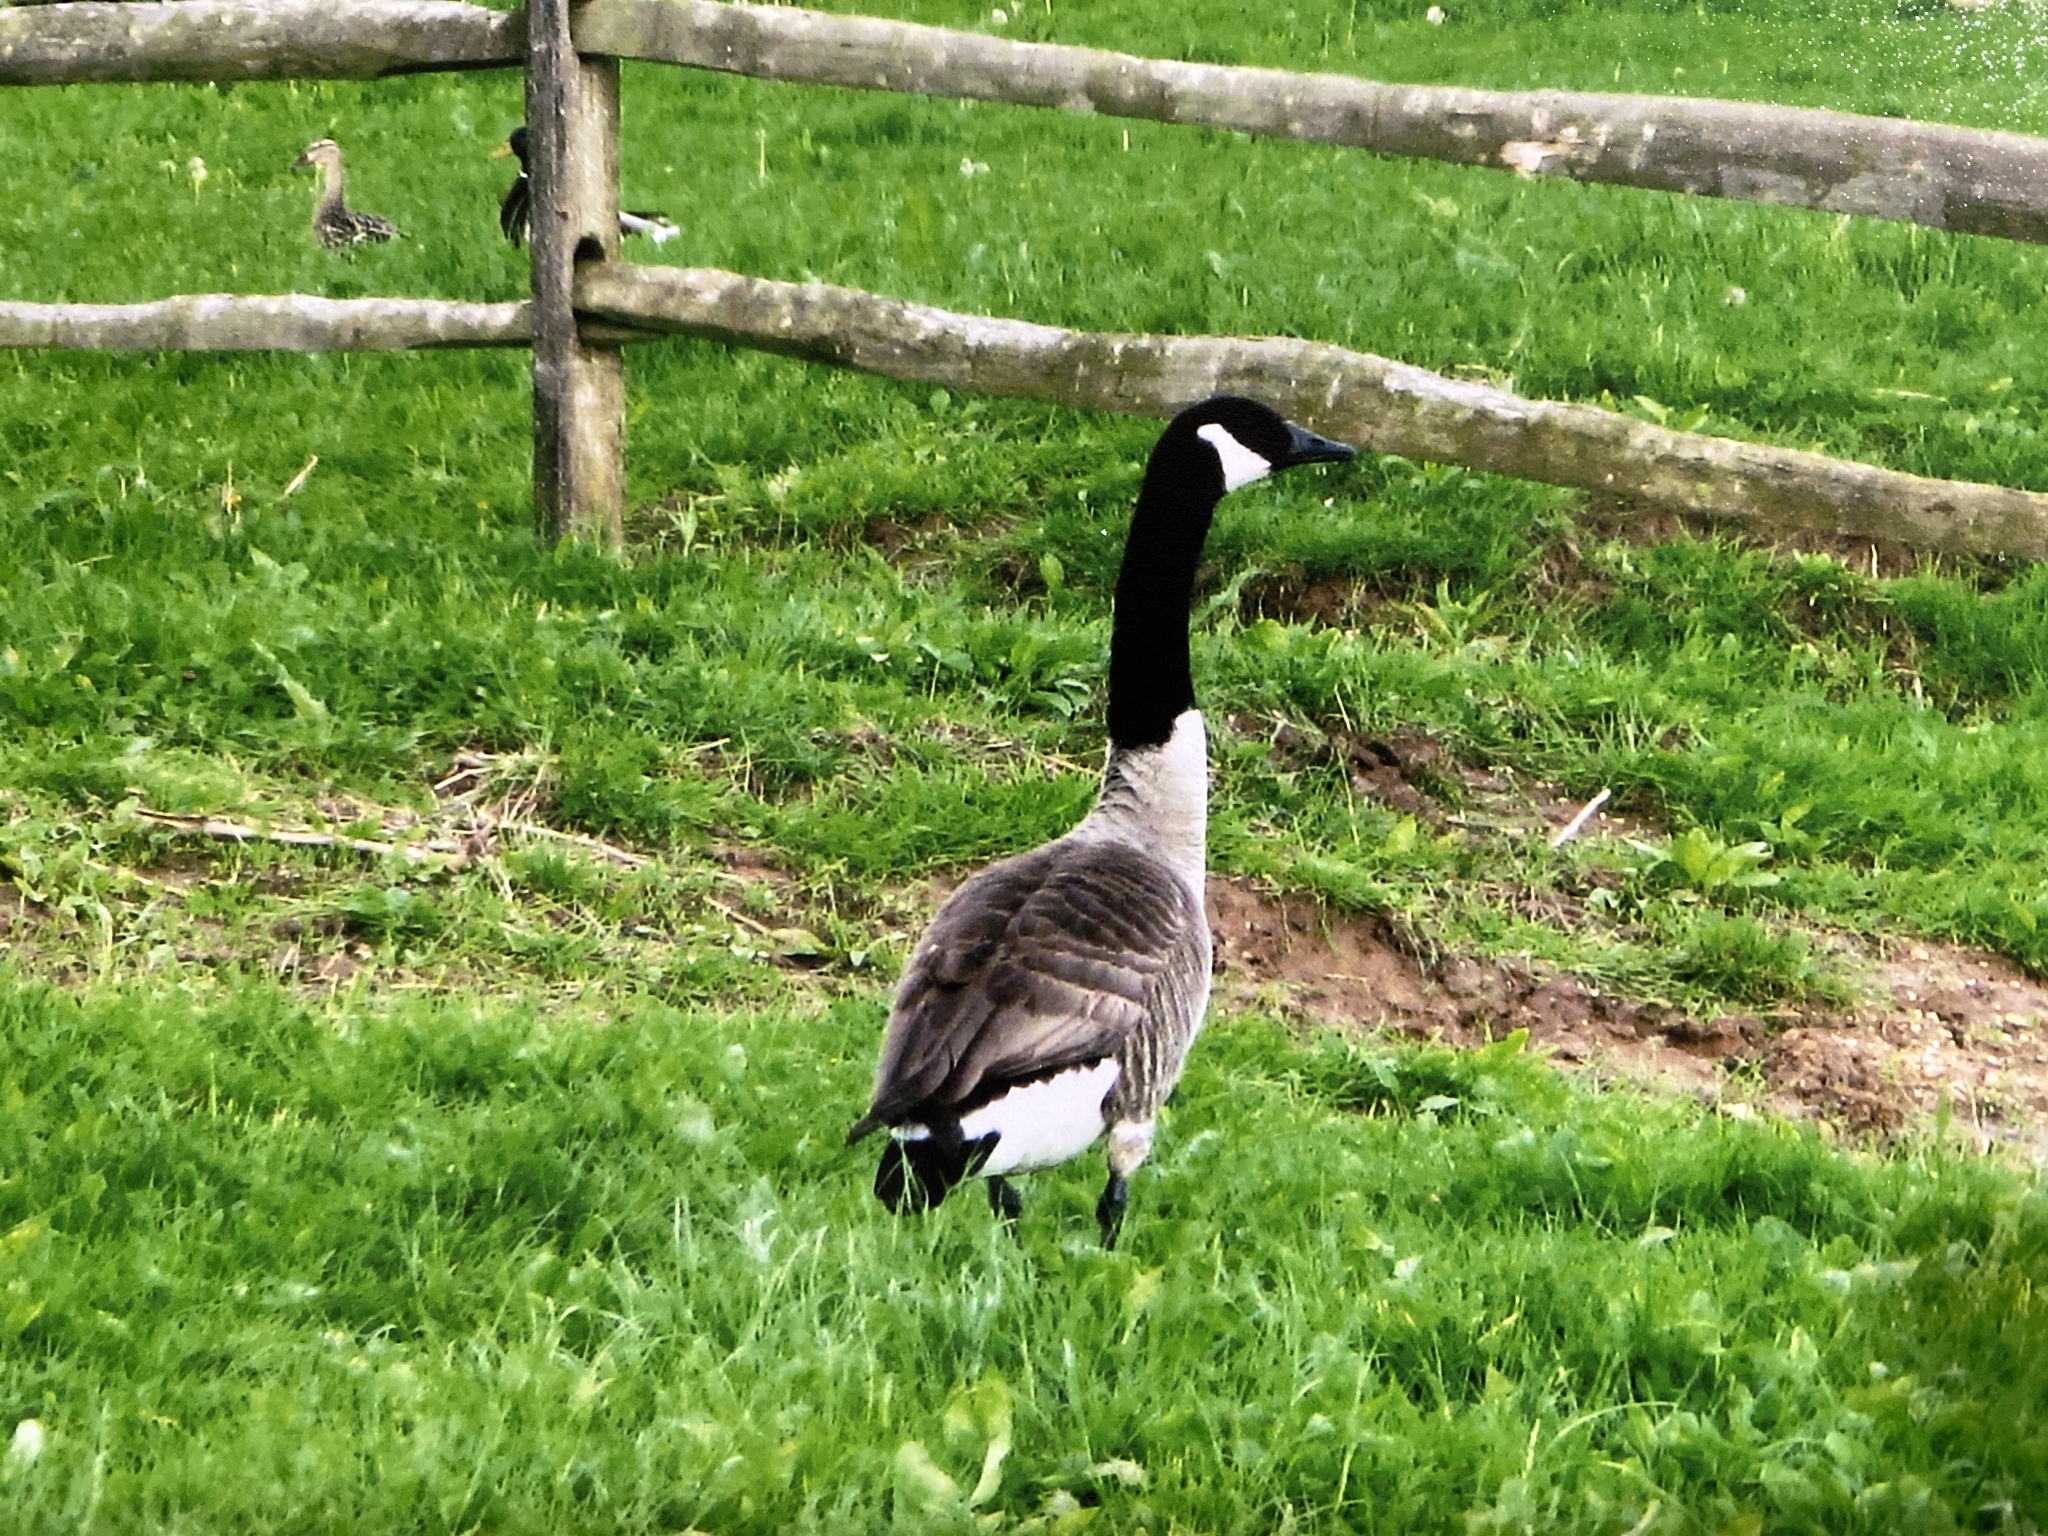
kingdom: Animalia
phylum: Chordata
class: Aves
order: Anseriformes
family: Anatidae
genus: Branta
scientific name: Branta canadensis
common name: Canada goose
